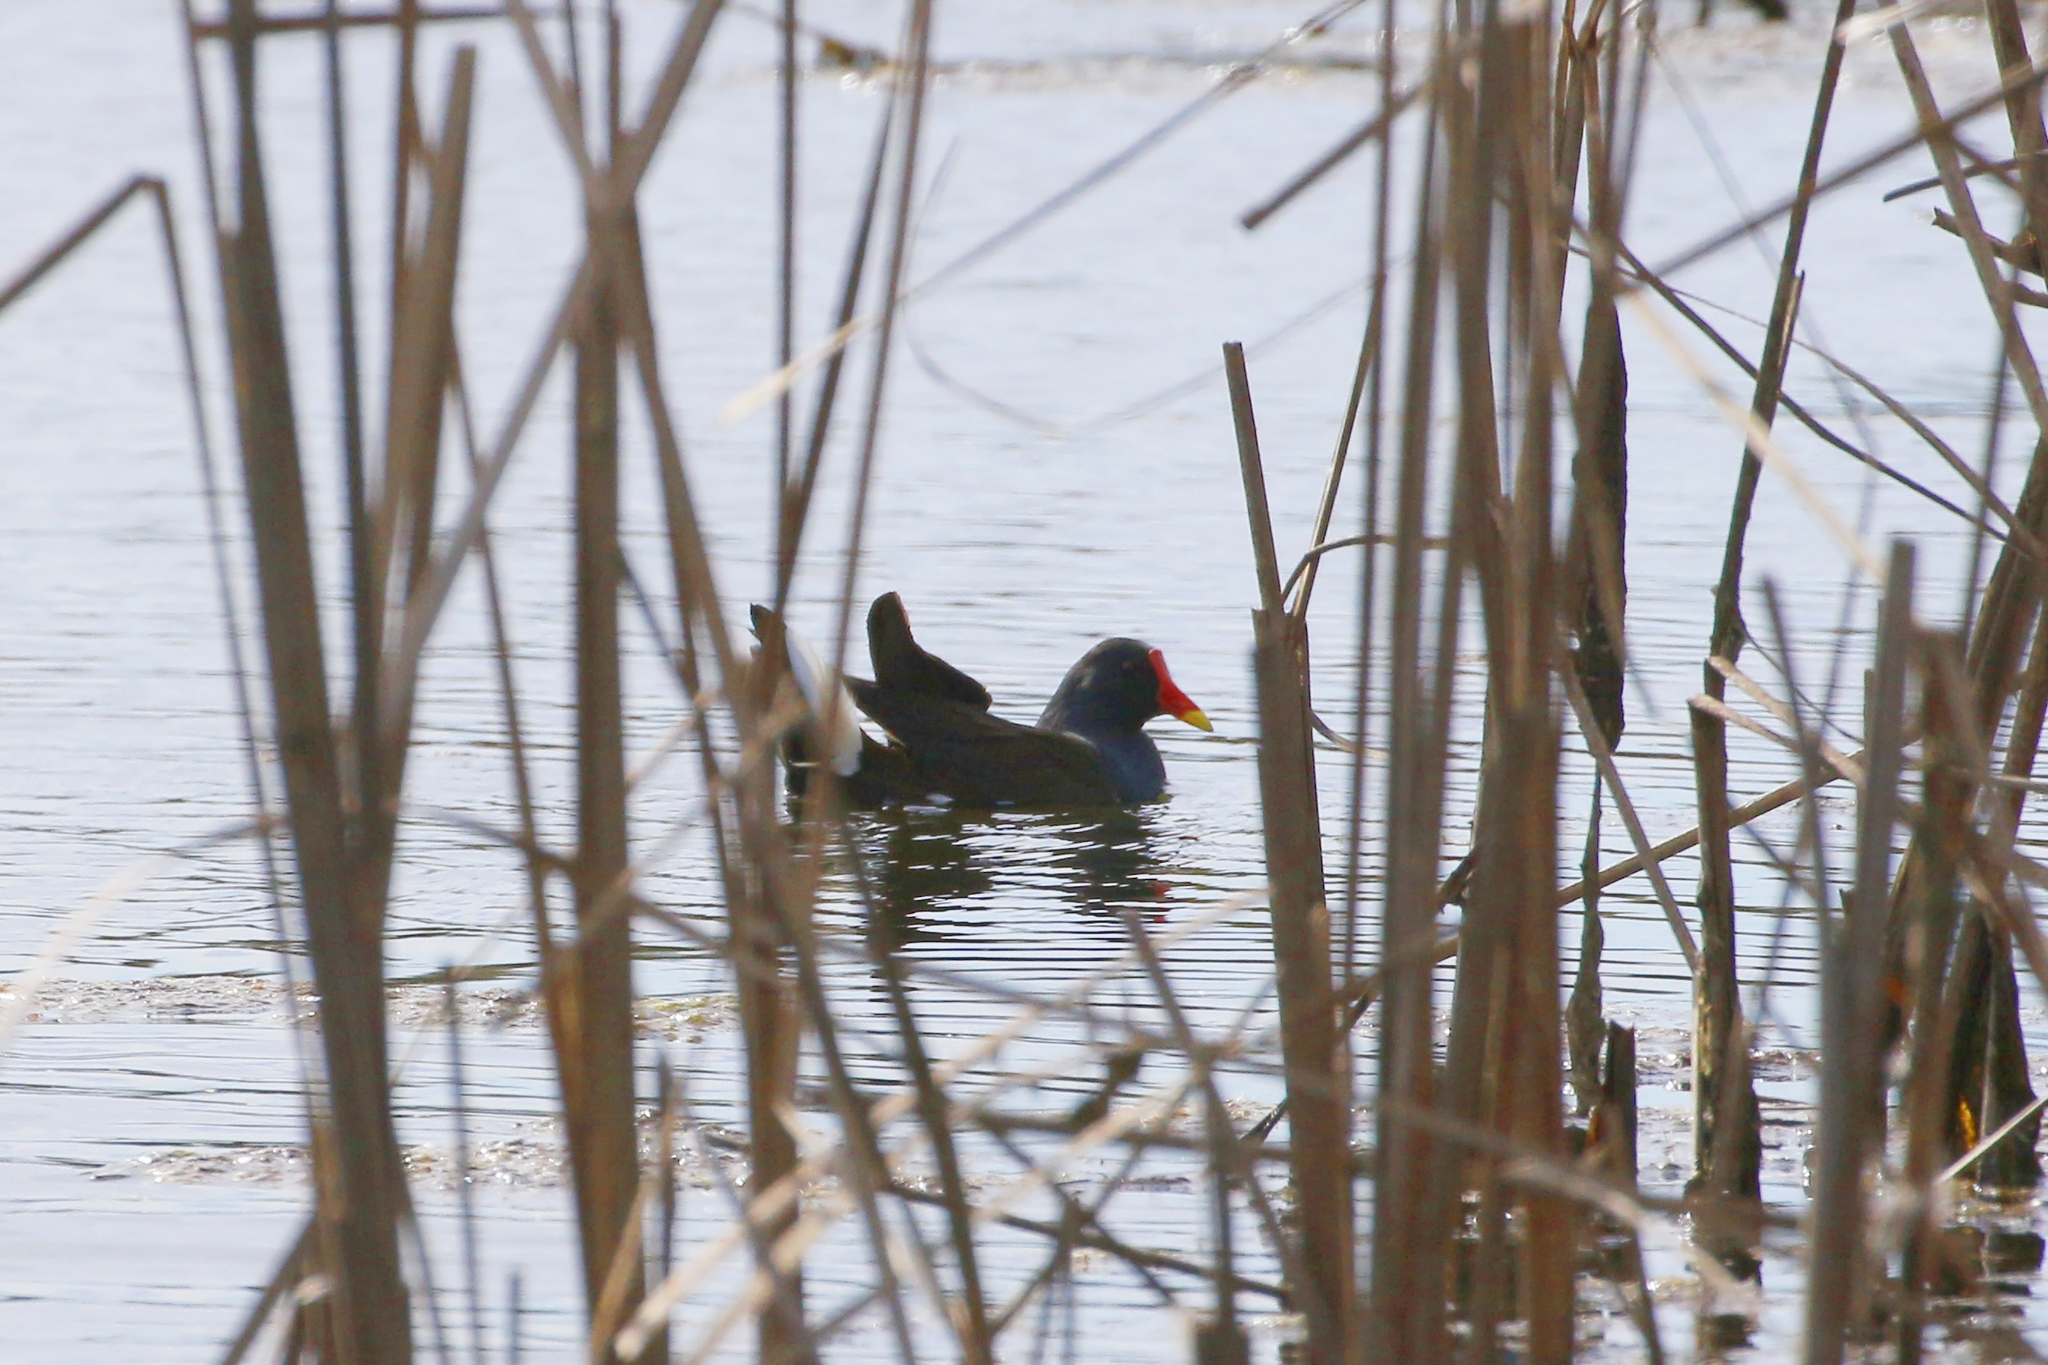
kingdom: Animalia
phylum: Chordata
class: Aves
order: Gruiformes
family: Rallidae
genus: Gallinula
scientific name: Gallinula chloropus
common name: Common moorhen
